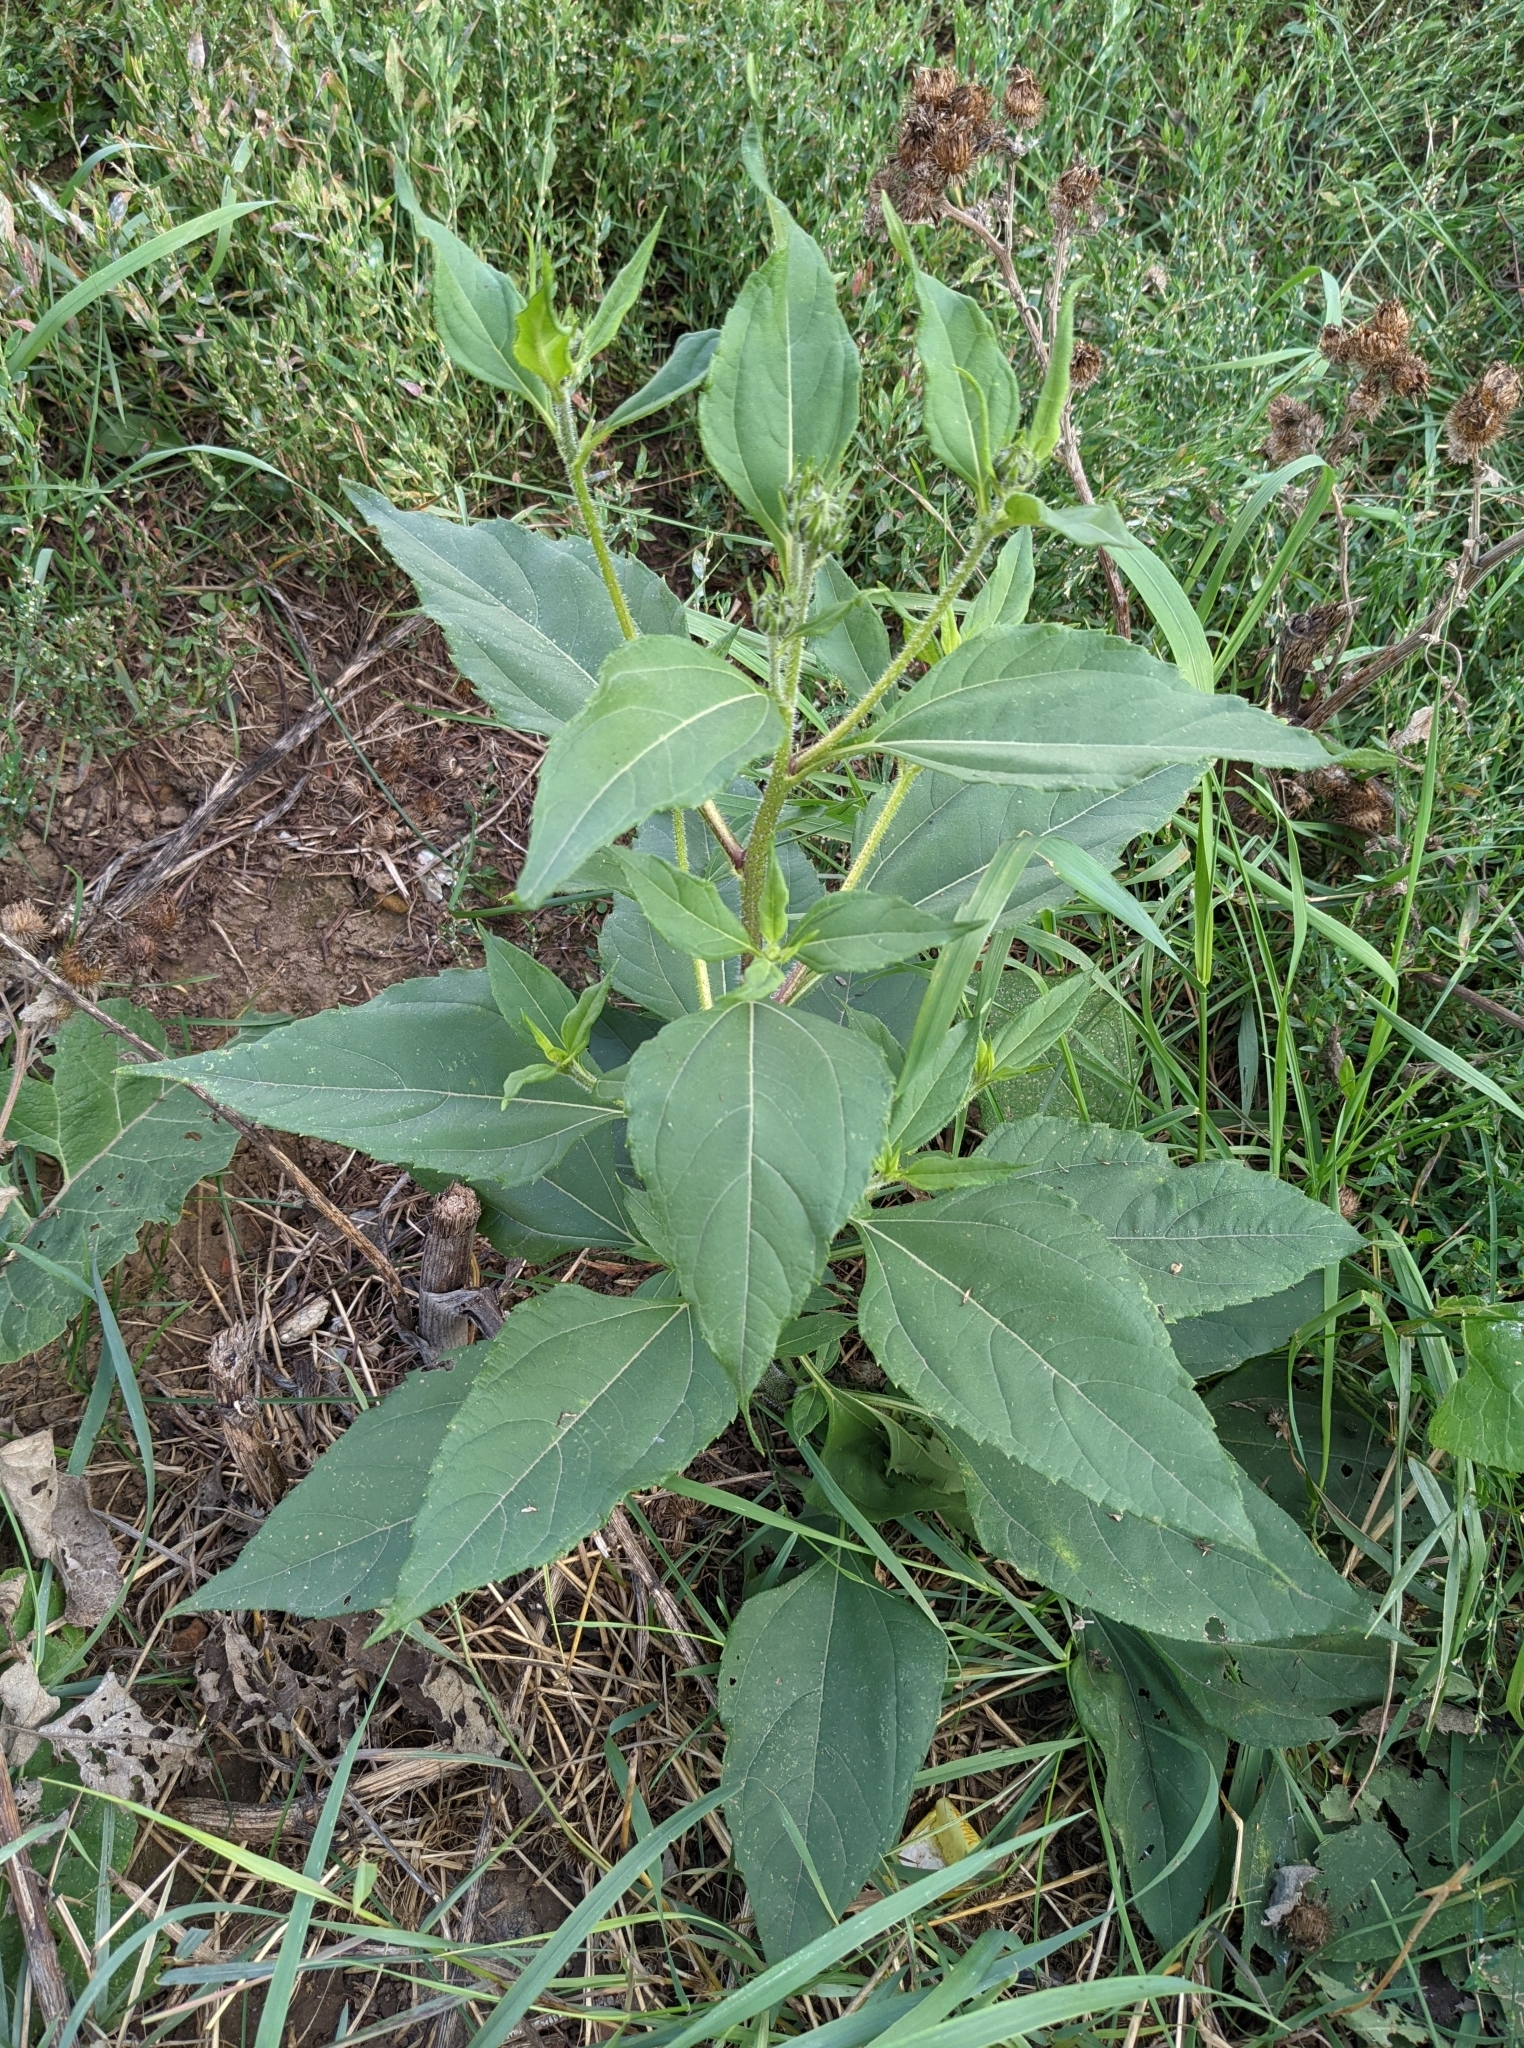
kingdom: Plantae
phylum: Tracheophyta
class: Magnoliopsida
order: Asterales
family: Asteraceae
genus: Helianthus
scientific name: Helianthus tuberosus
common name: Jerusalem artichoke
